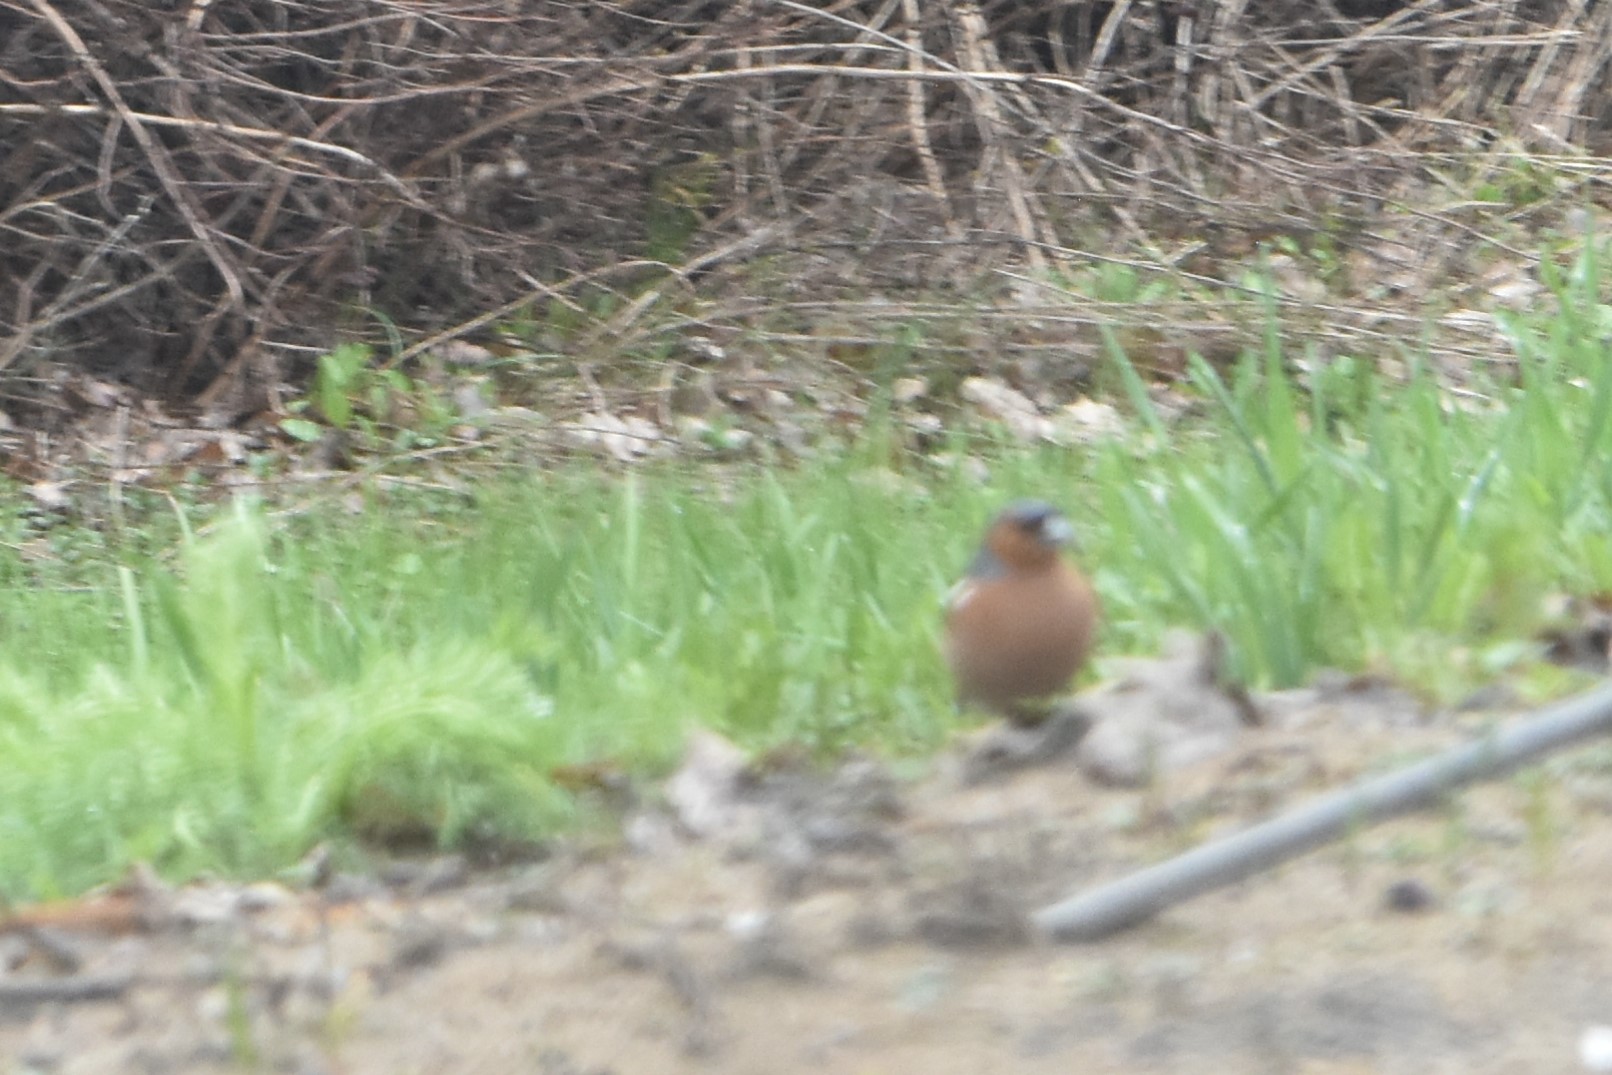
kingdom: Animalia
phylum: Chordata
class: Aves
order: Passeriformes
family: Fringillidae
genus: Fringilla
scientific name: Fringilla coelebs
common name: Common chaffinch
